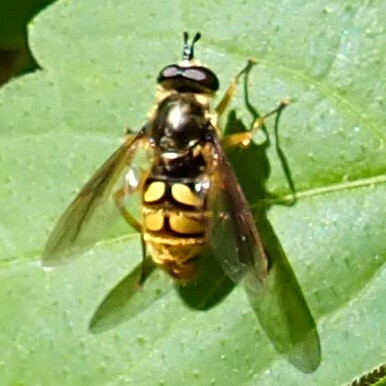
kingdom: Animalia
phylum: Arthropoda
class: Insecta
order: Diptera
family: Syrphidae
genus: Somula
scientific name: Somula decora
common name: Spotted wood fly
